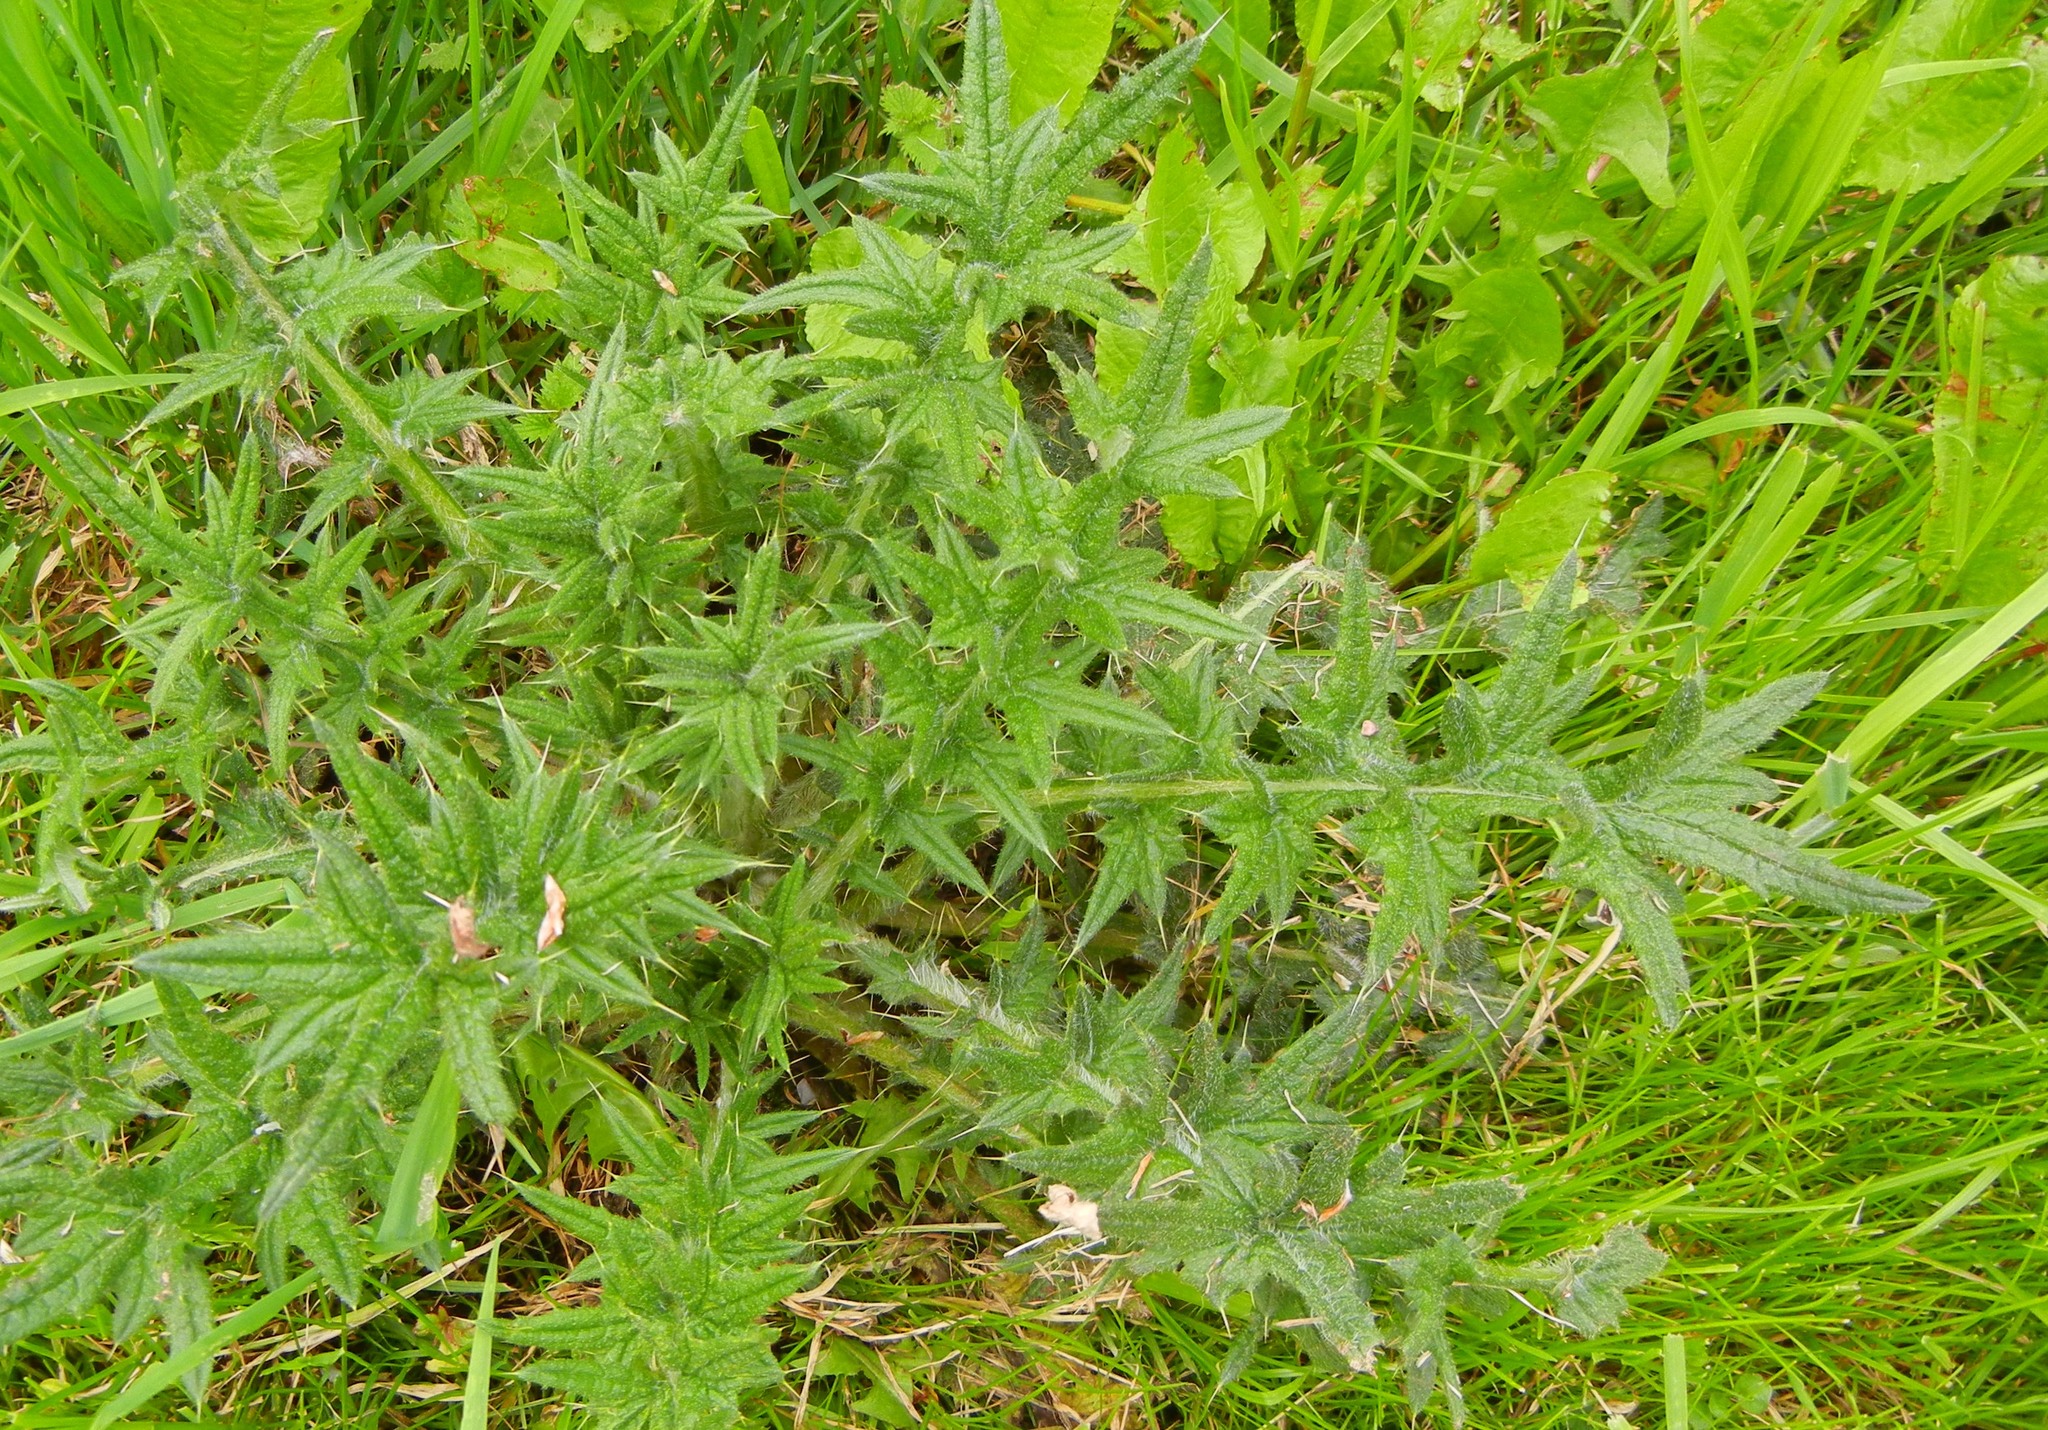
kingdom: Plantae
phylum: Tracheophyta
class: Magnoliopsida
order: Asterales
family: Asteraceae
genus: Cirsium
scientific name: Cirsium vulgare
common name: Bull thistle
